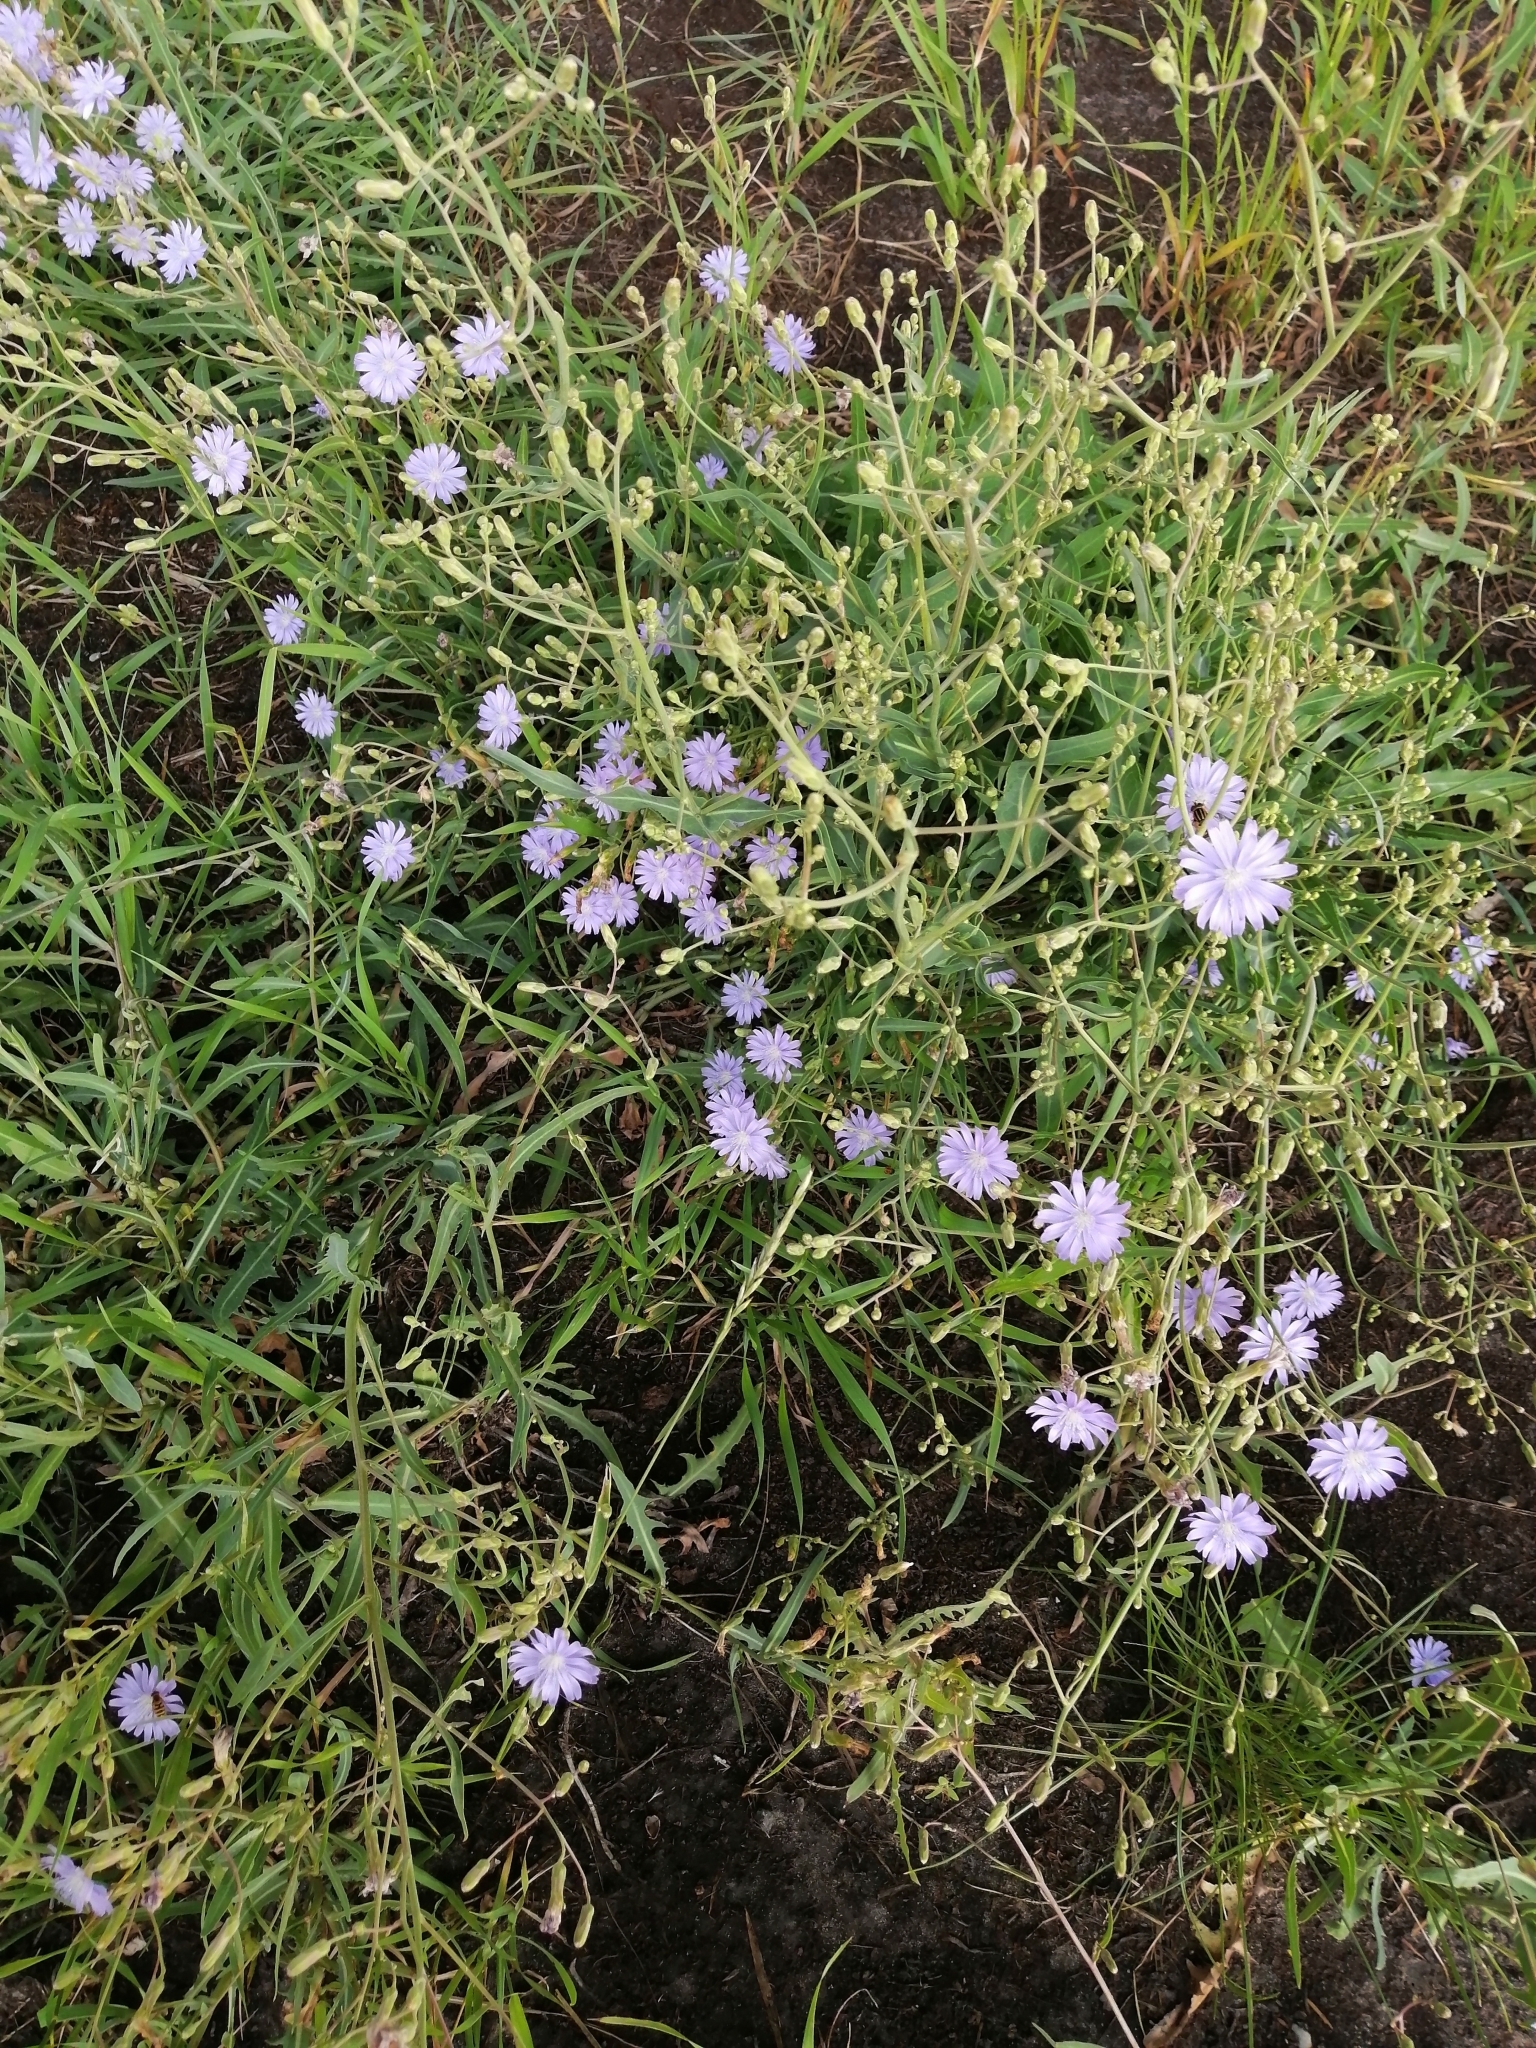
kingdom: Plantae
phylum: Tracheophyta
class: Magnoliopsida
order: Asterales
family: Asteraceae
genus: Lactuca
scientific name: Lactuca tatarica
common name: Blue lettuce
